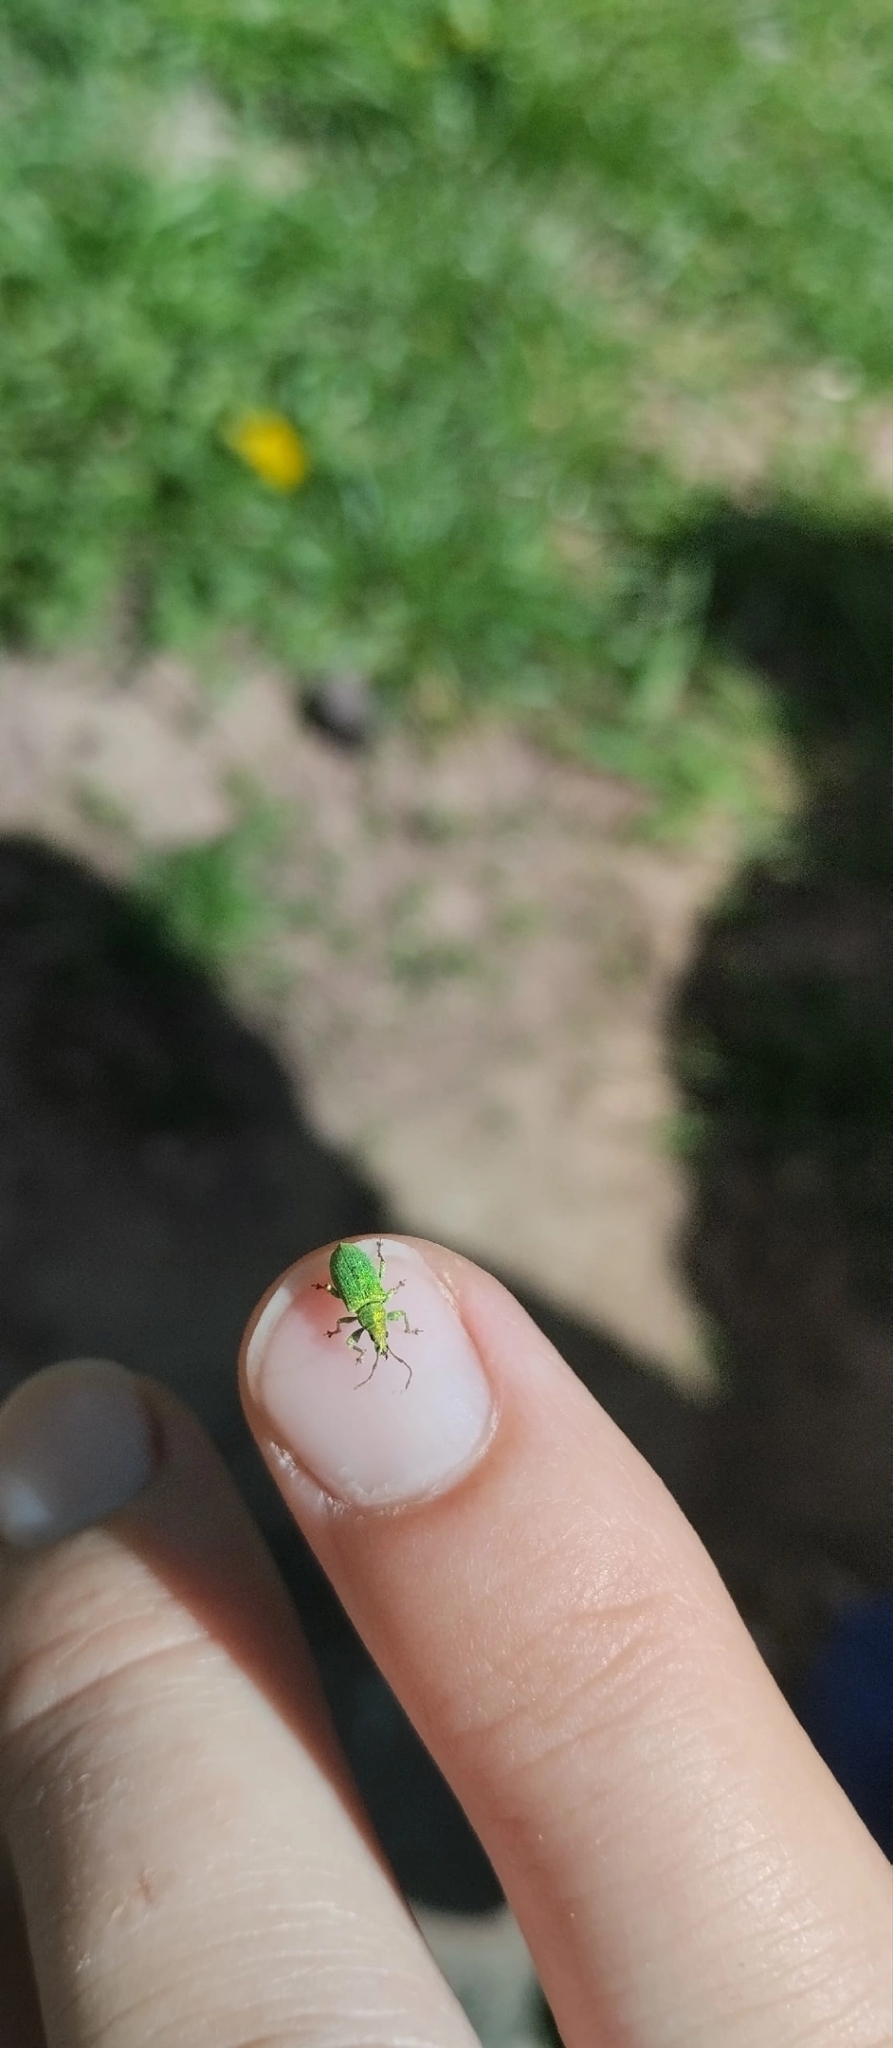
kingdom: Animalia
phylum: Arthropoda
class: Insecta
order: Coleoptera
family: Curculionidae
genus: Phyllobius
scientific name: Phyllobius maculicornis
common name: Green leaf weevil
